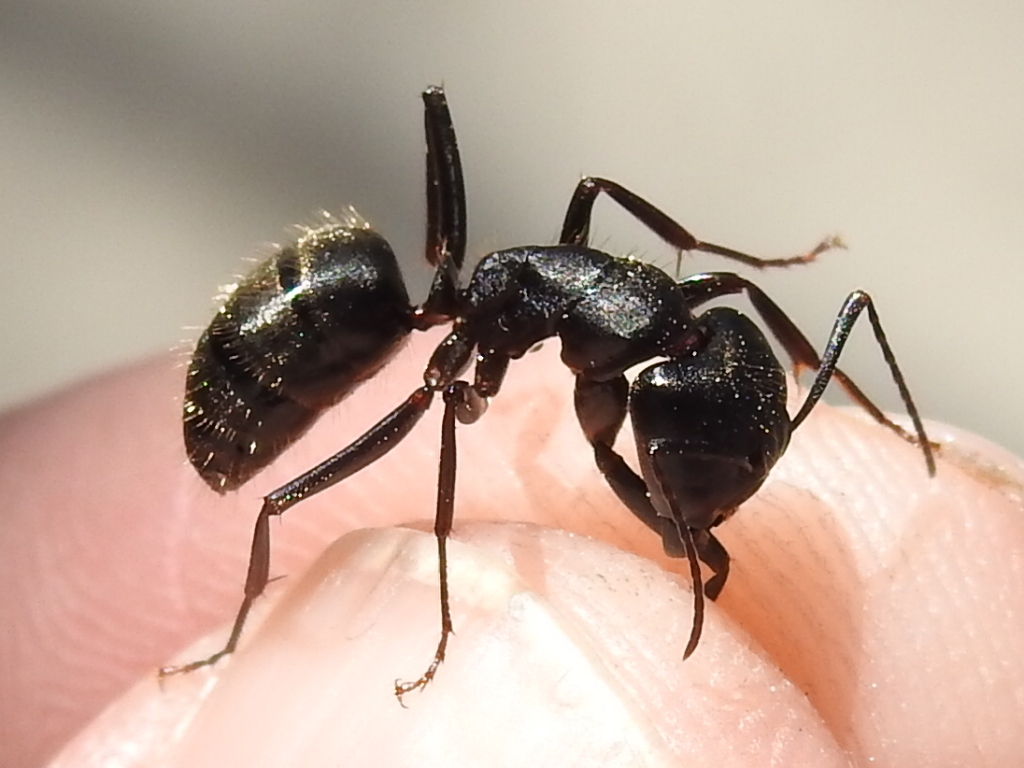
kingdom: Animalia
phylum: Arthropoda
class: Insecta
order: Hymenoptera
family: Formicidae
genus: Camponotus
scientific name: Camponotus pennsylvanicus
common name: Black carpenter ant
